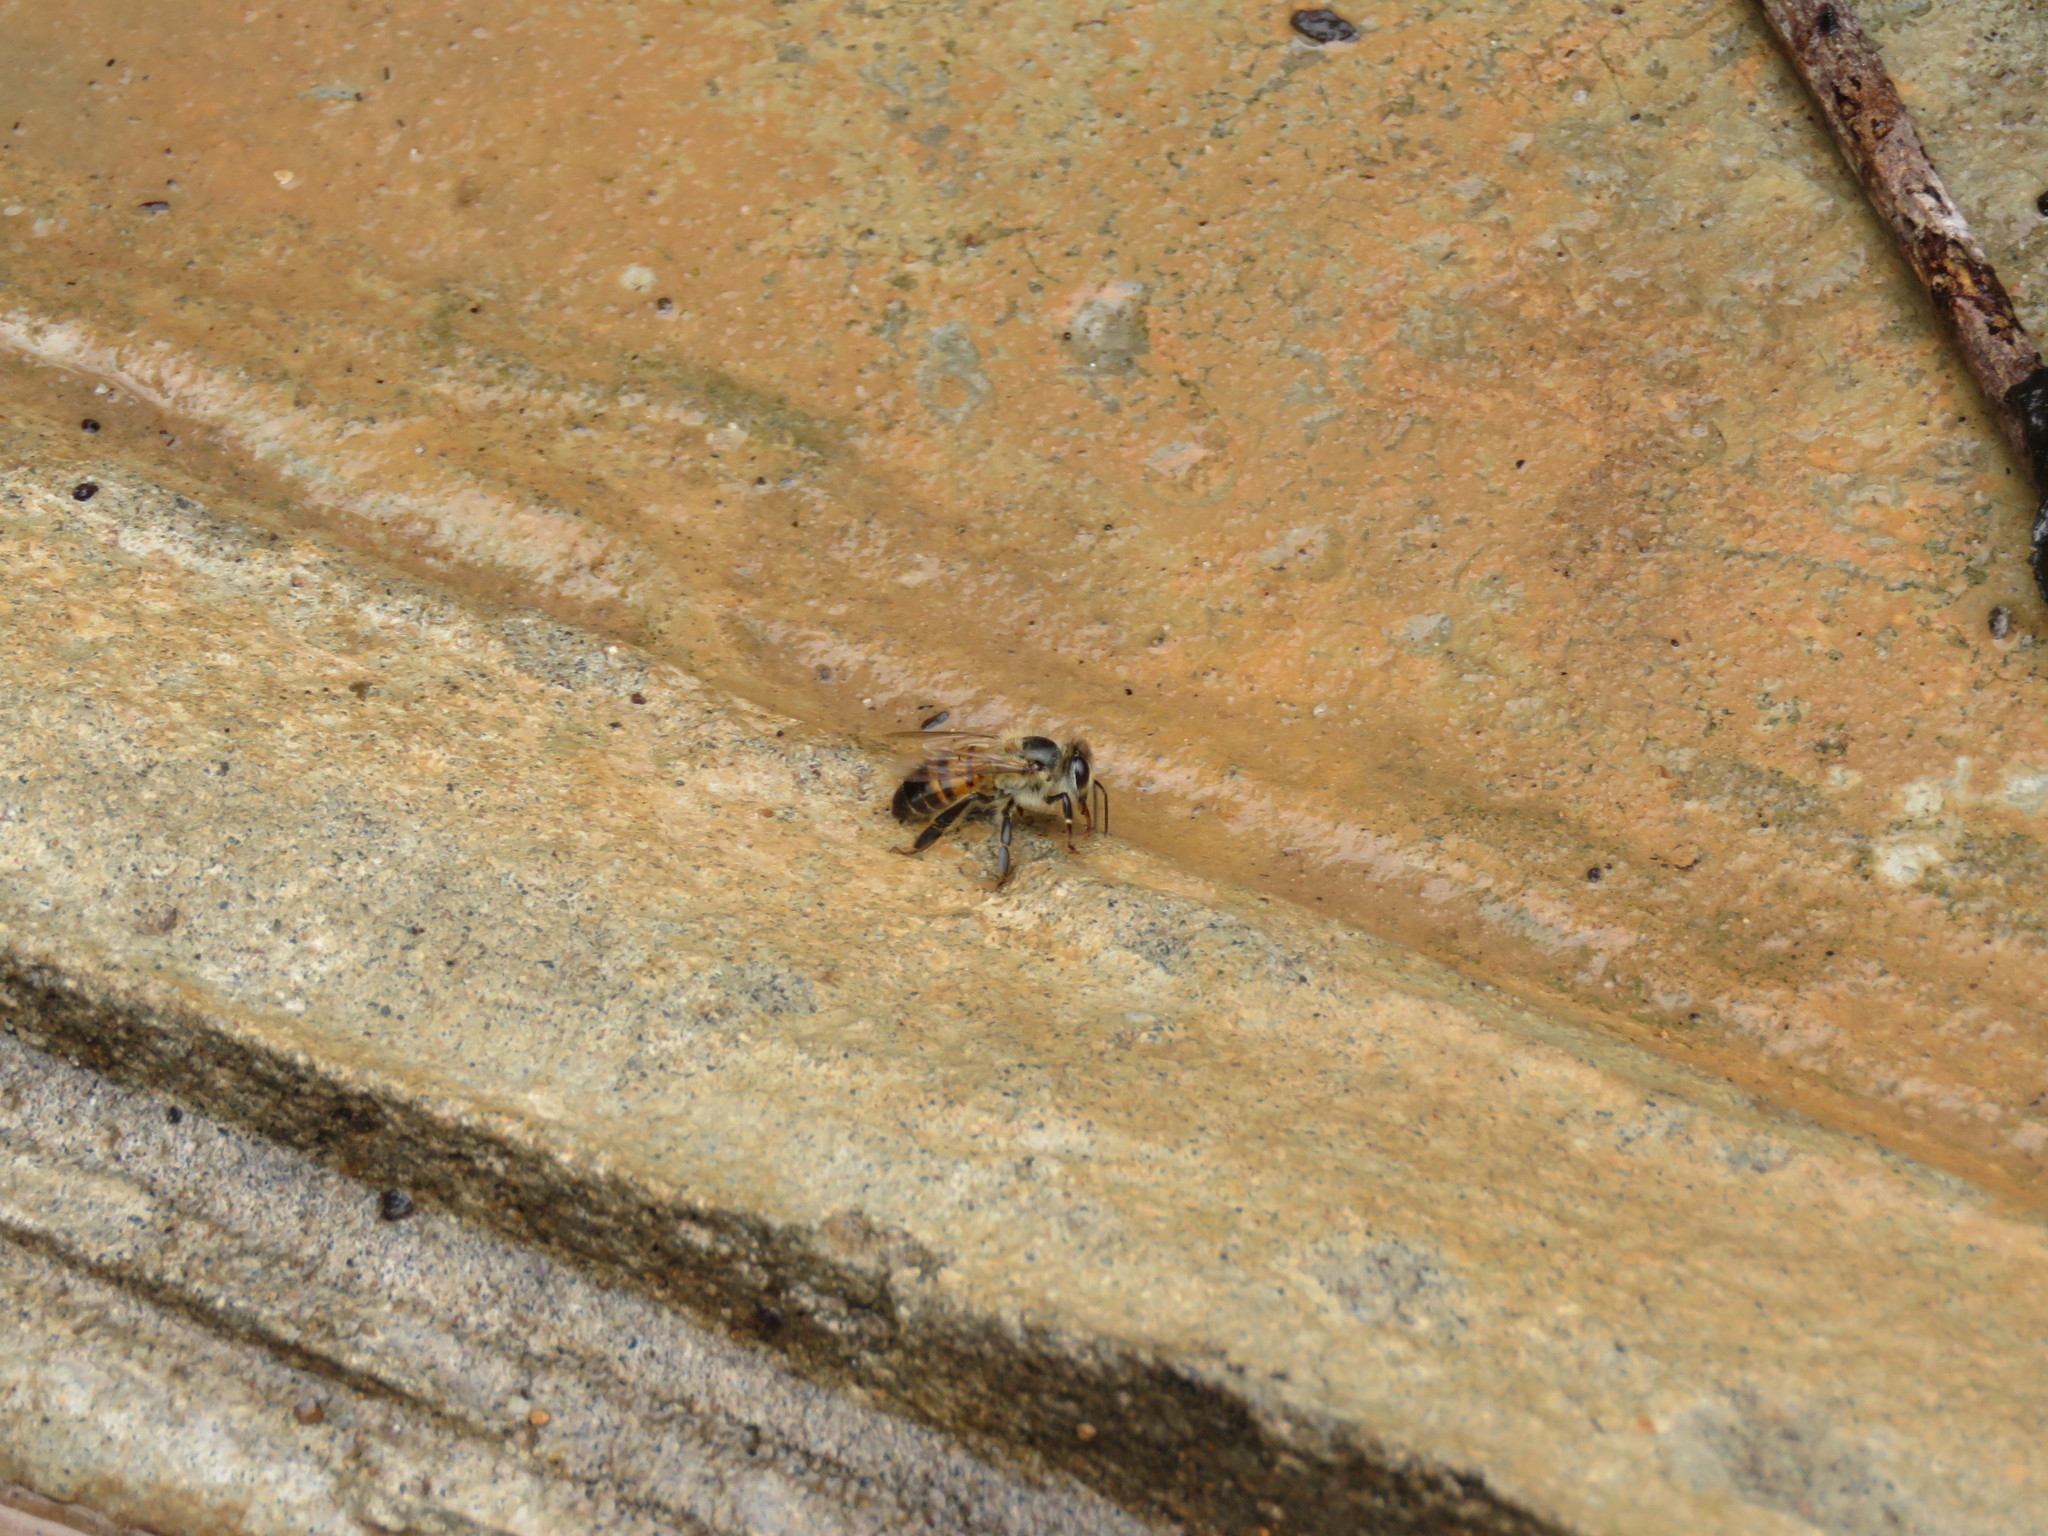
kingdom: Animalia
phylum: Arthropoda
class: Insecta
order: Hymenoptera
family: Apidae
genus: Apis
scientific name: Apis mellifera
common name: Honey bee
